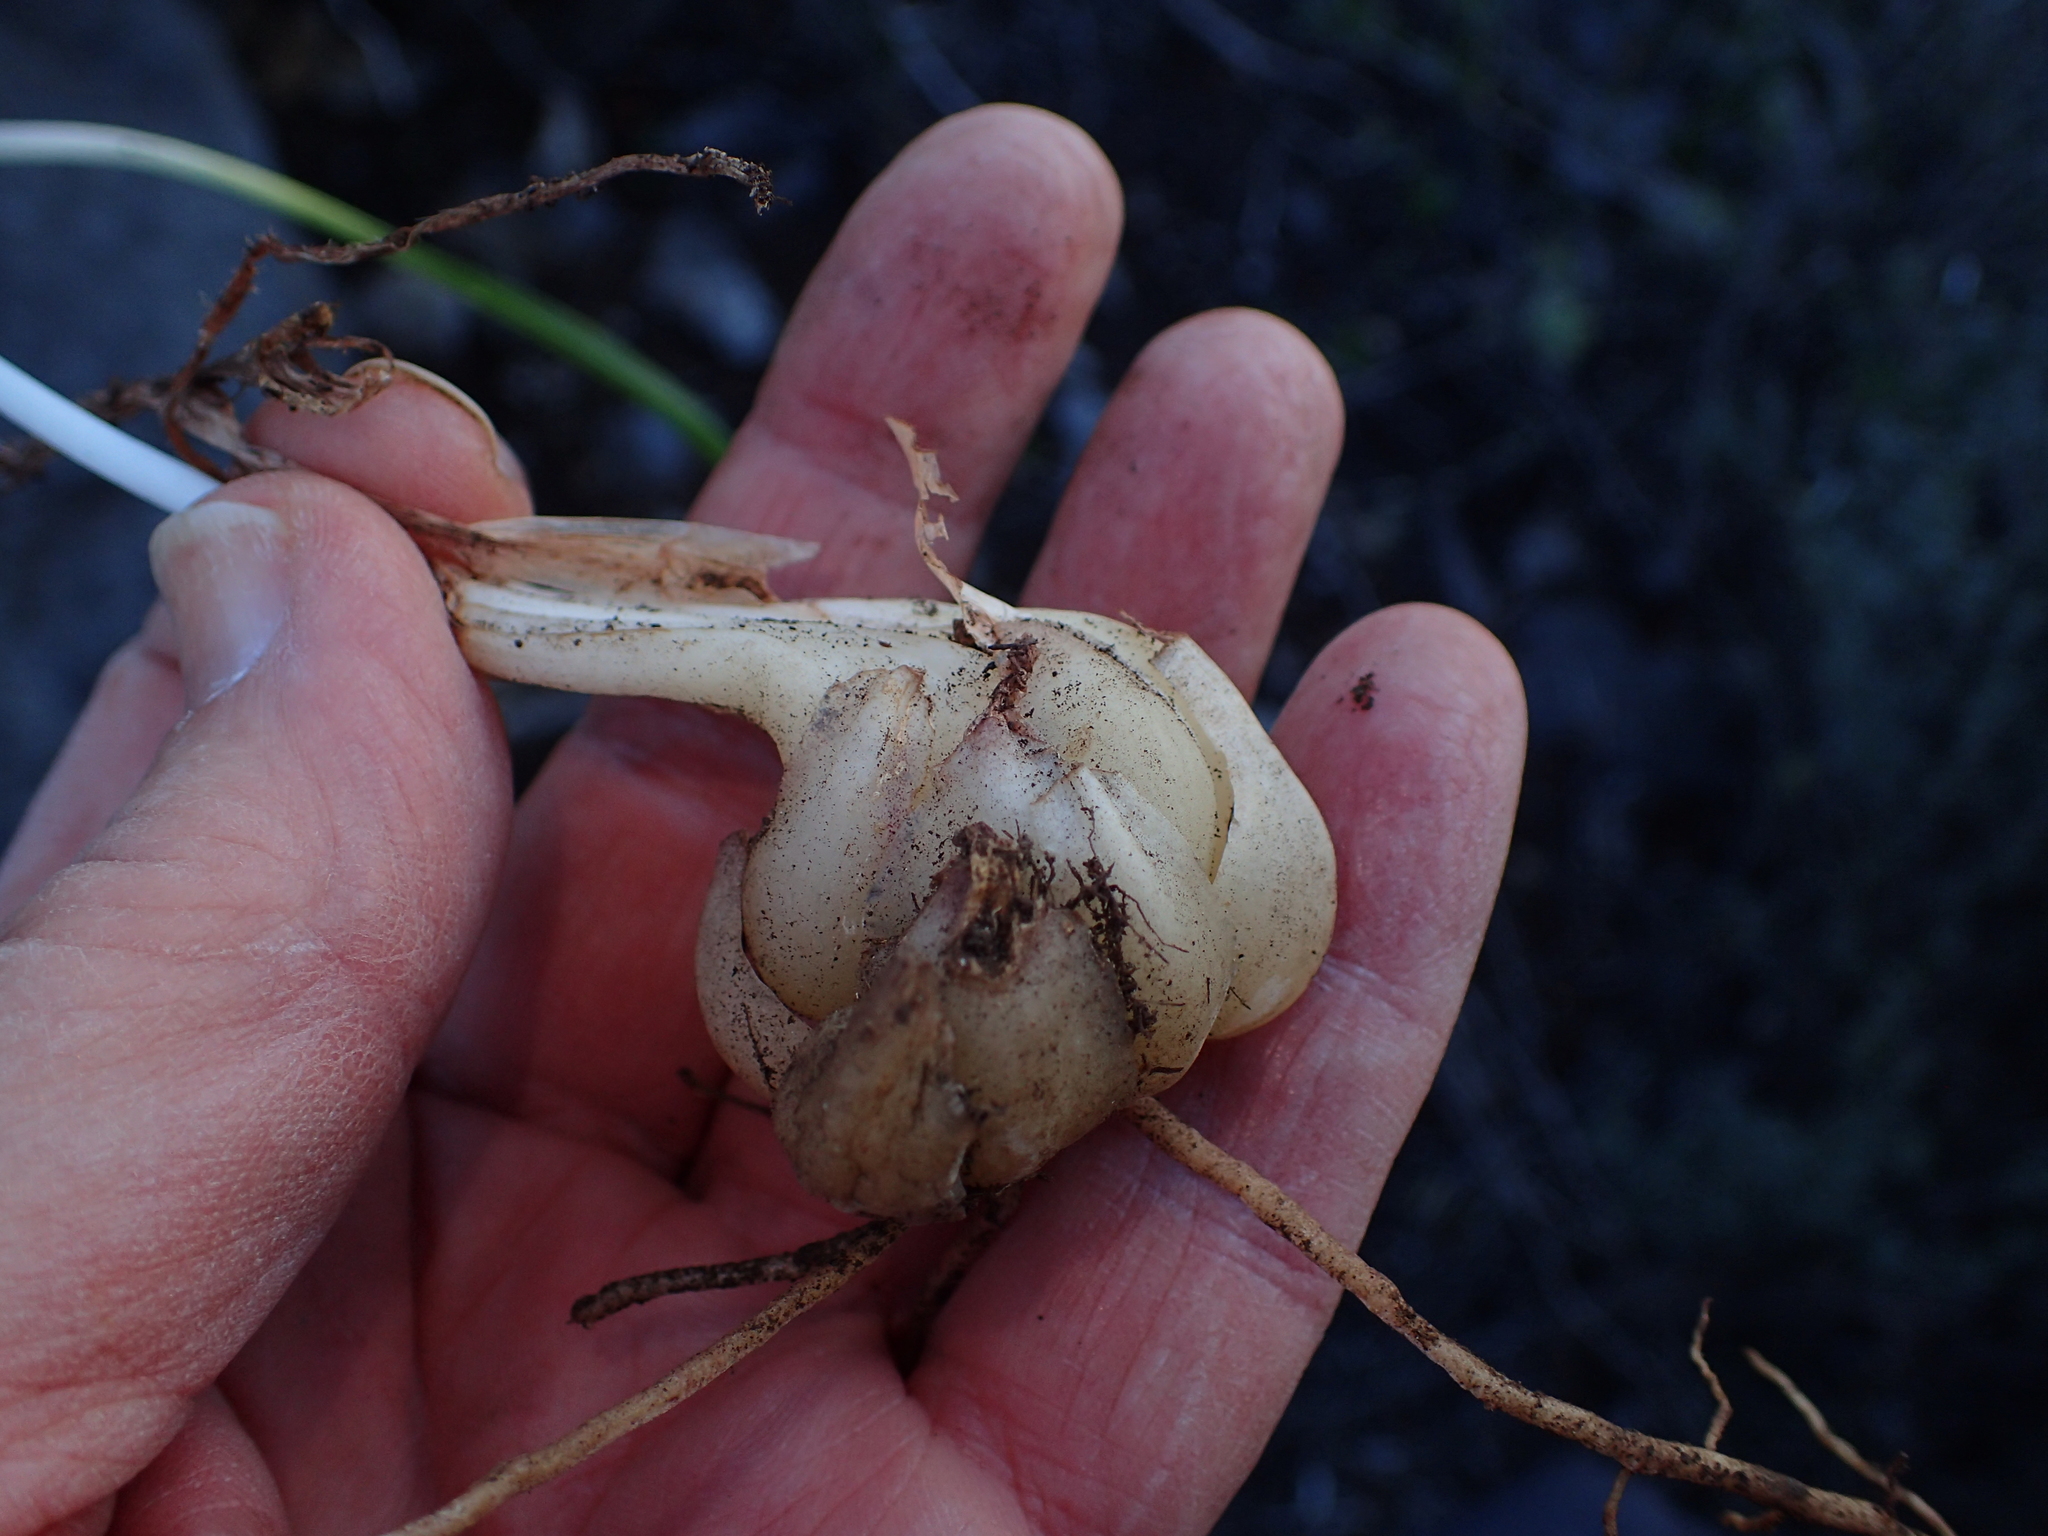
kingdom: Plantae
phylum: Tracheophyta
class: Liliopsida
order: Asparagales
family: Asparagaceae
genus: Drimia
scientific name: Drimia haworthioides
